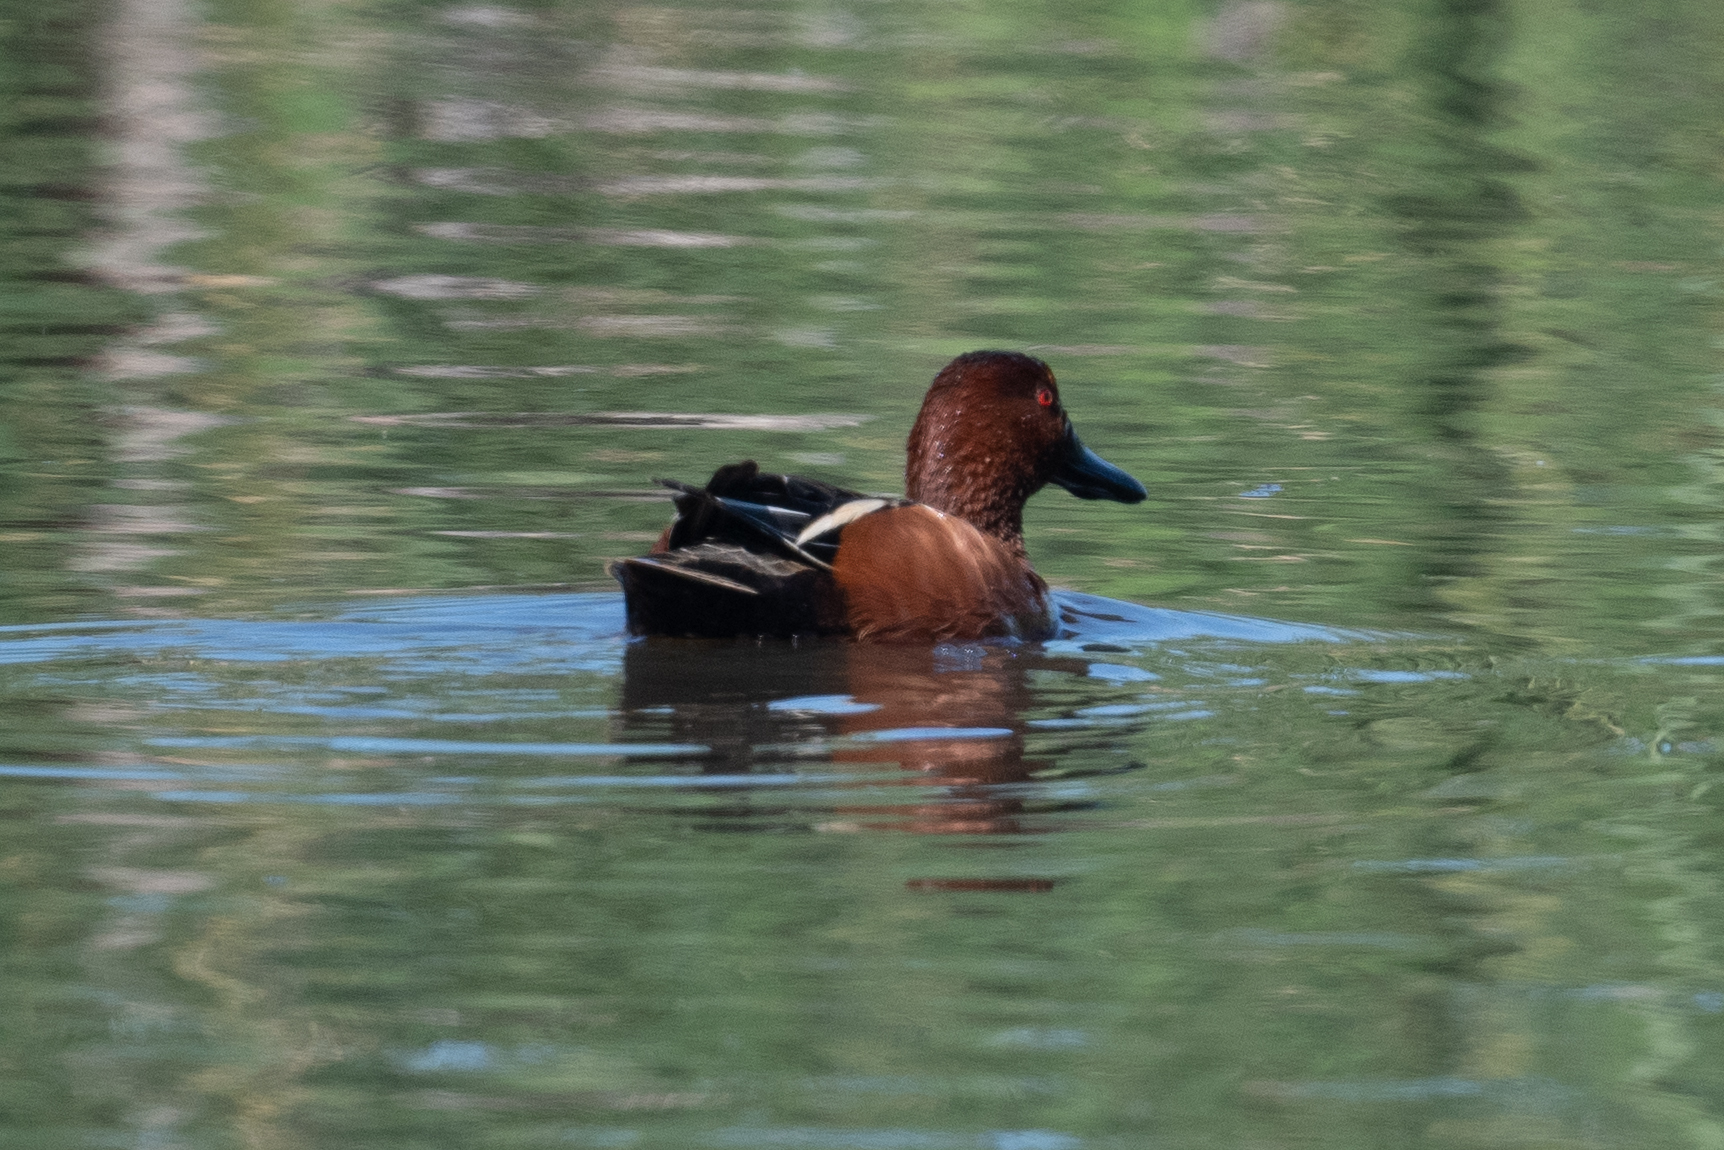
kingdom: Animalia
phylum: Chordata
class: Aves
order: Anseriformes
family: Anatidae
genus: Spatula
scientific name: Spatula cyanoptera
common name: Cinnamon teal
